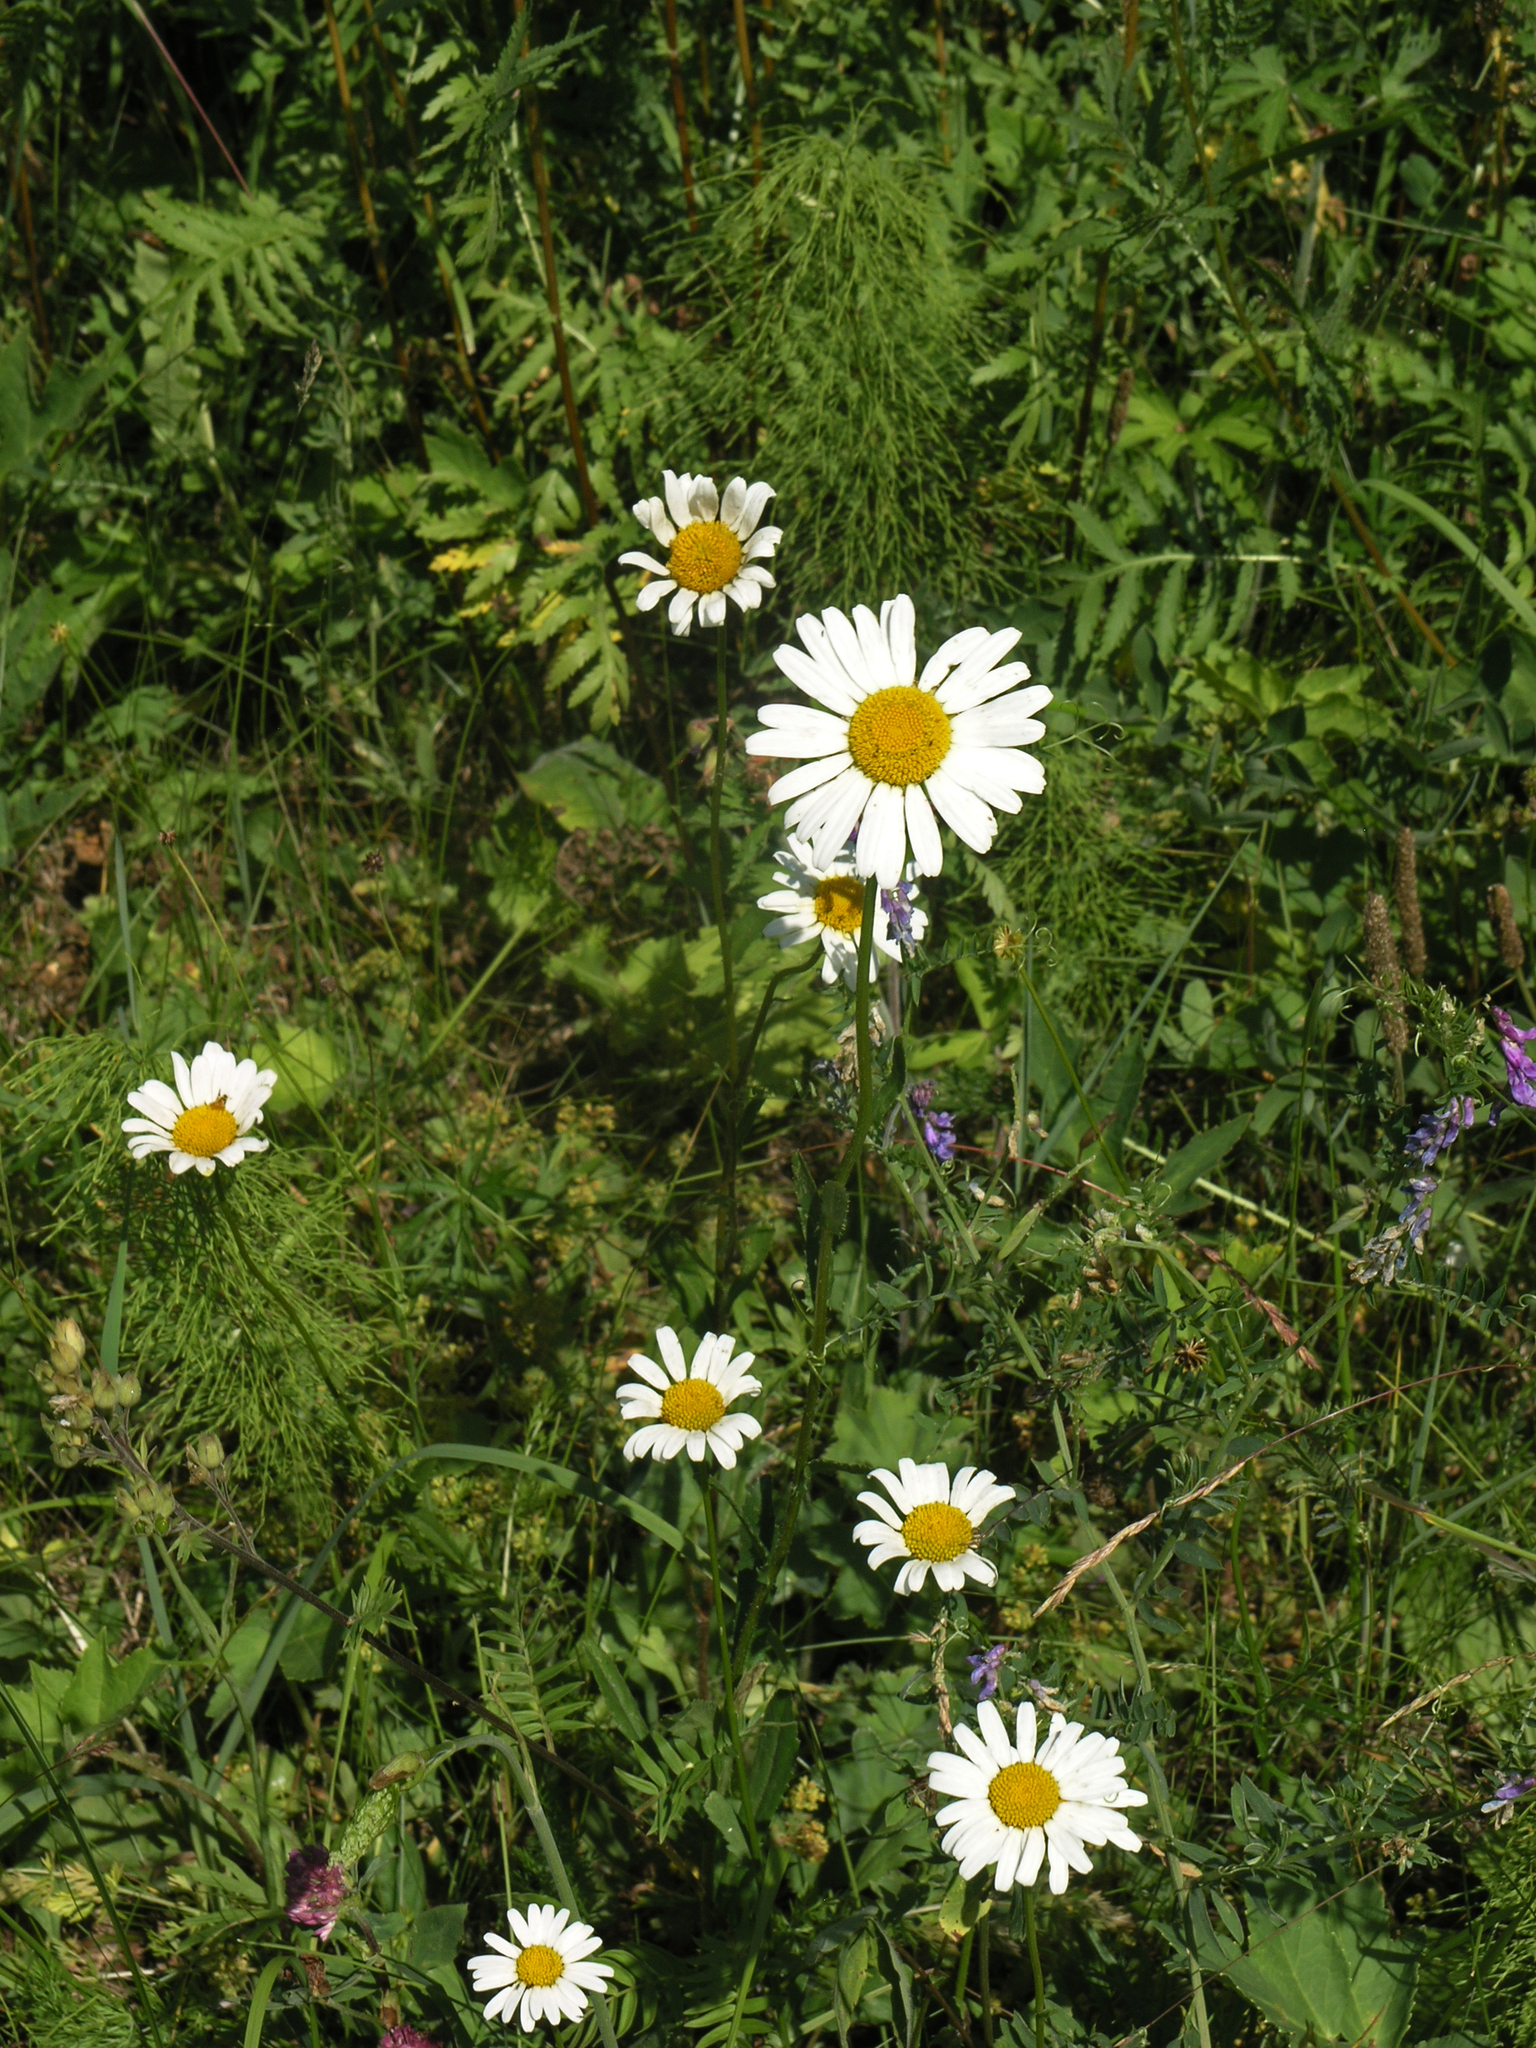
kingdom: Plantae
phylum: Tracheophyta
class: Magnoliopsida
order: Asterales
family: Asteraceae
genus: Leucanthemum
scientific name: Leucanthemum ircutianum
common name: Daisy
